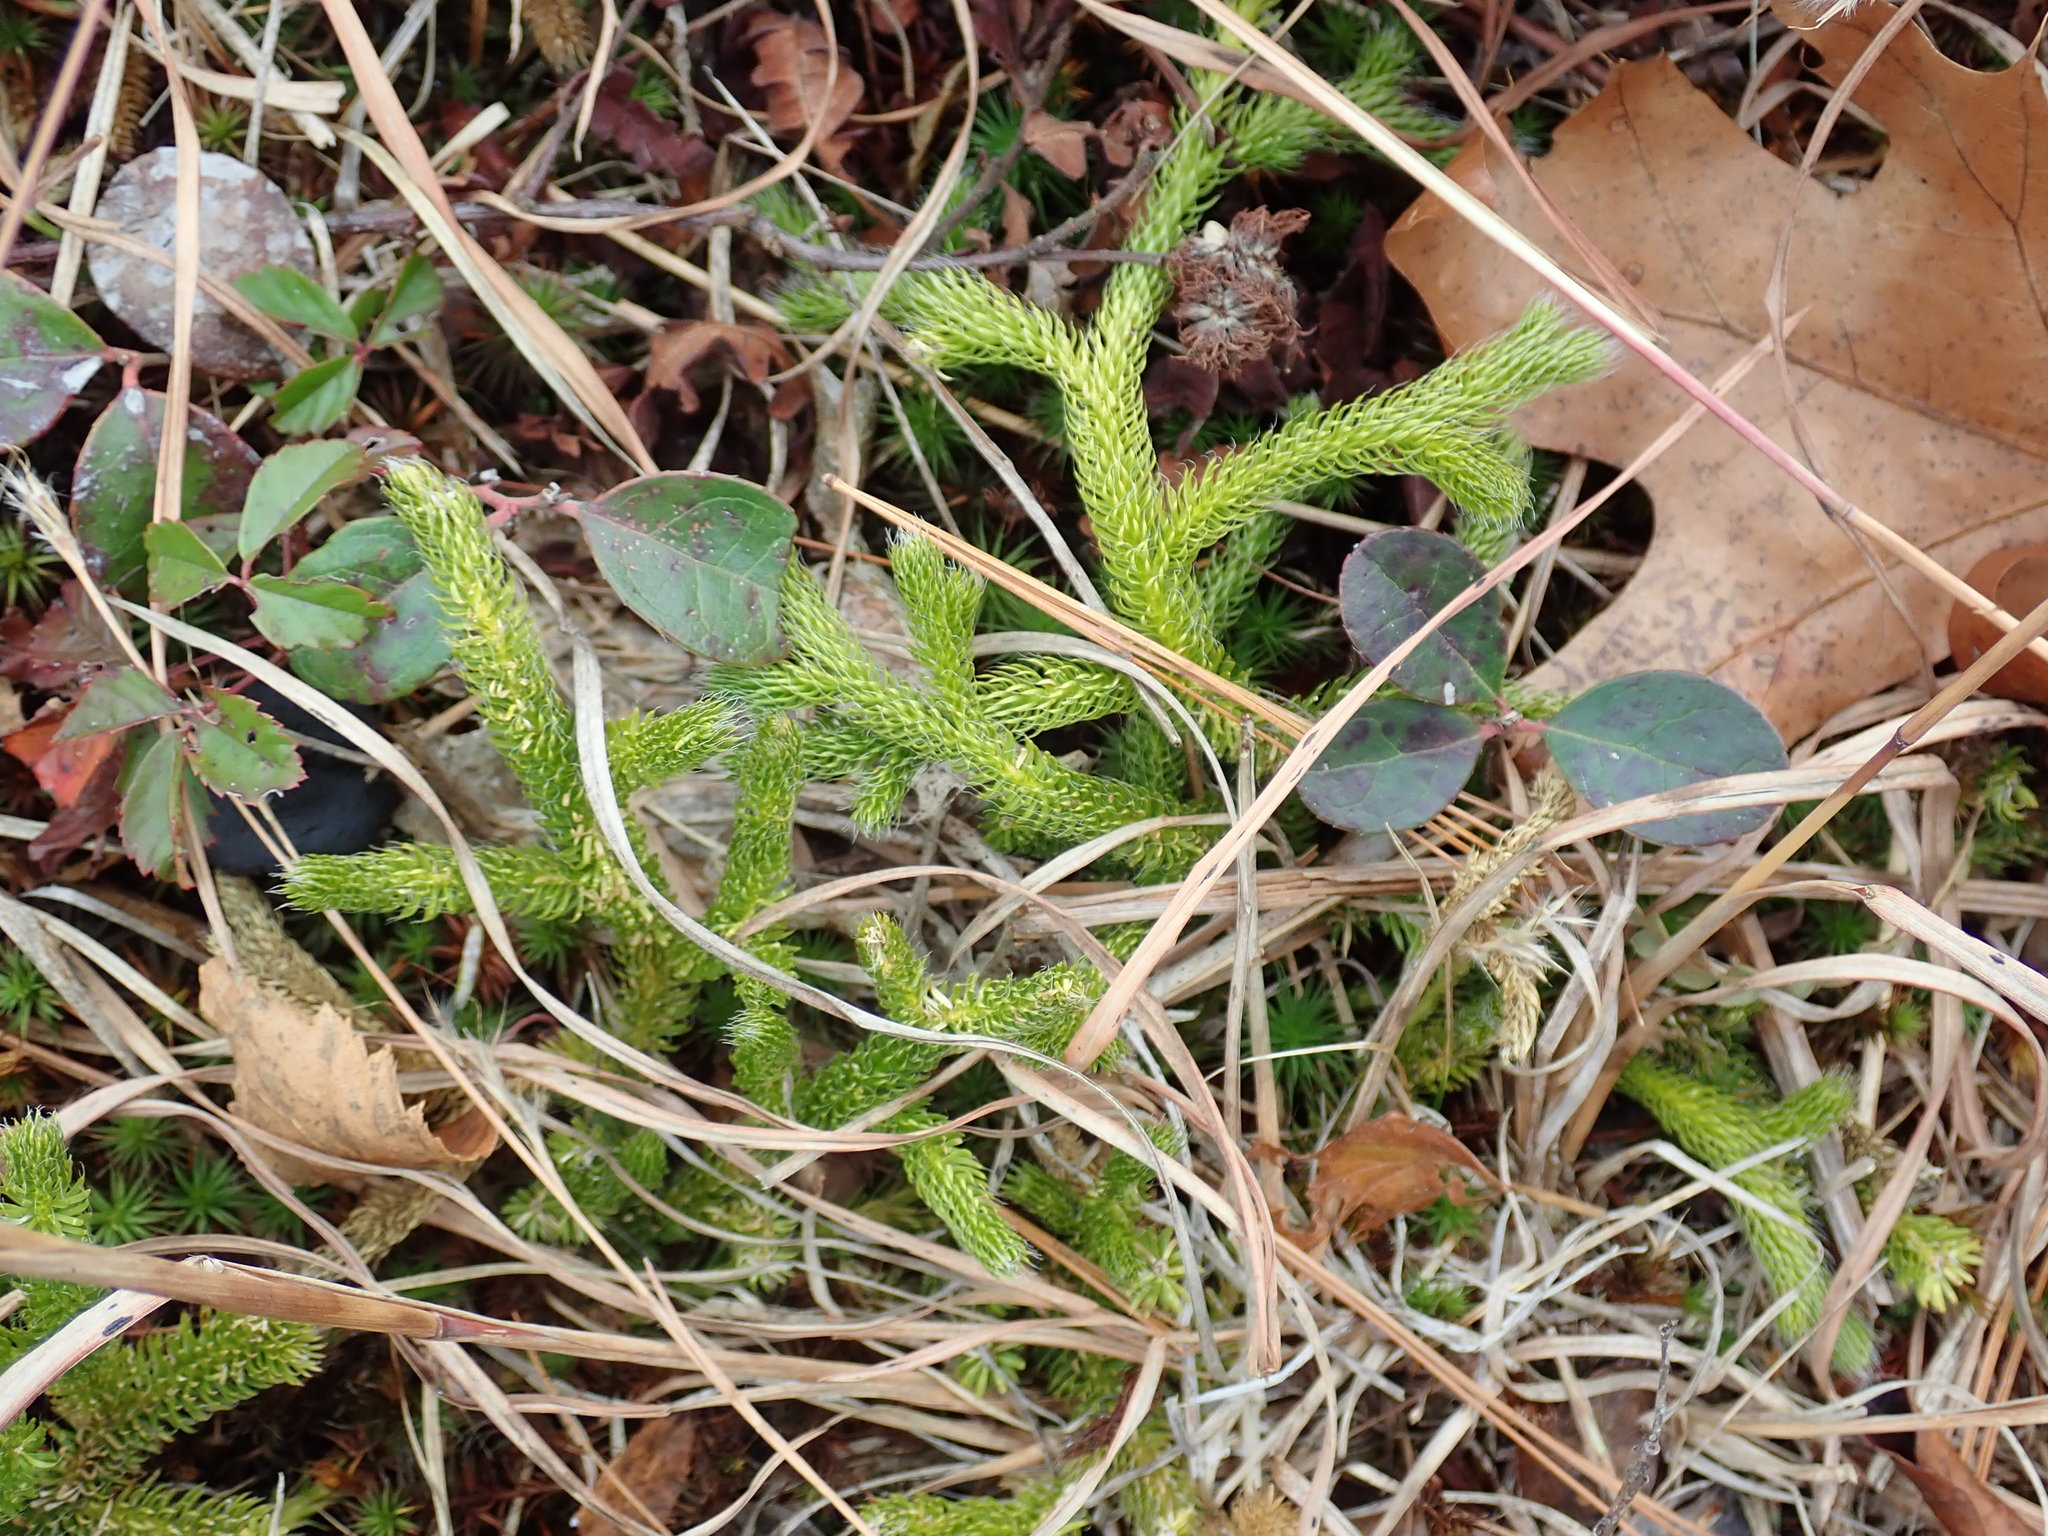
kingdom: Plantae
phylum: Tracheophyta
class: Lycopodiopsida
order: Lycopodiales
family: Lycopodiaceae
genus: Lycopodium
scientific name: Lycopodium clavatum
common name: Stag's-horn clubmoss
